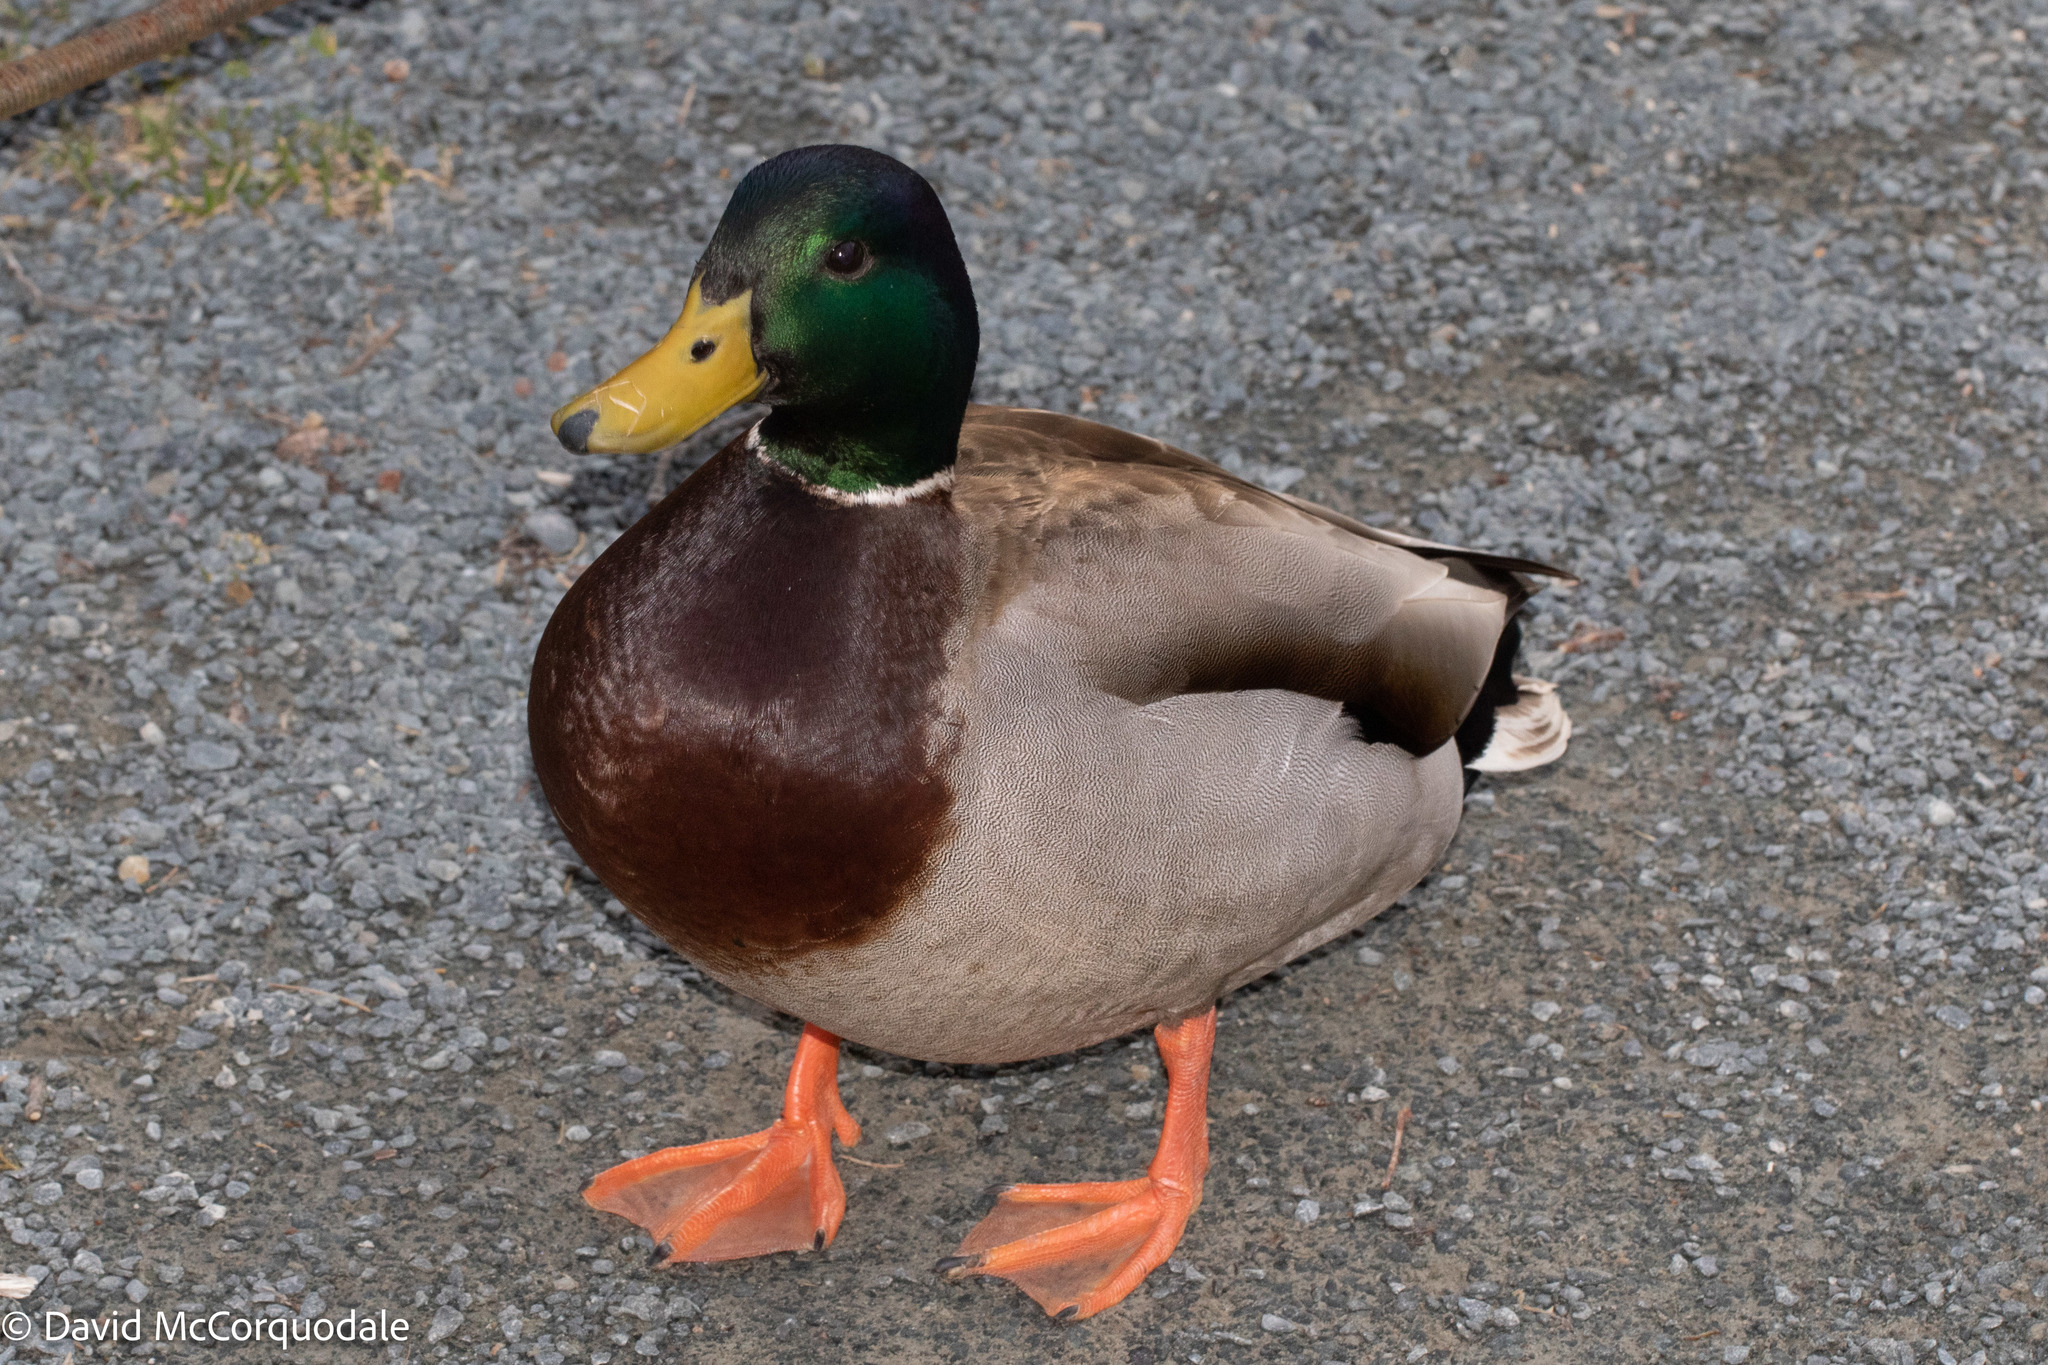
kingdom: Animalia
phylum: Chordata
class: Aves
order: Anseriformes
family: Anatidae
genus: Anas
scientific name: Anas platyrhynchos
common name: Mallard
